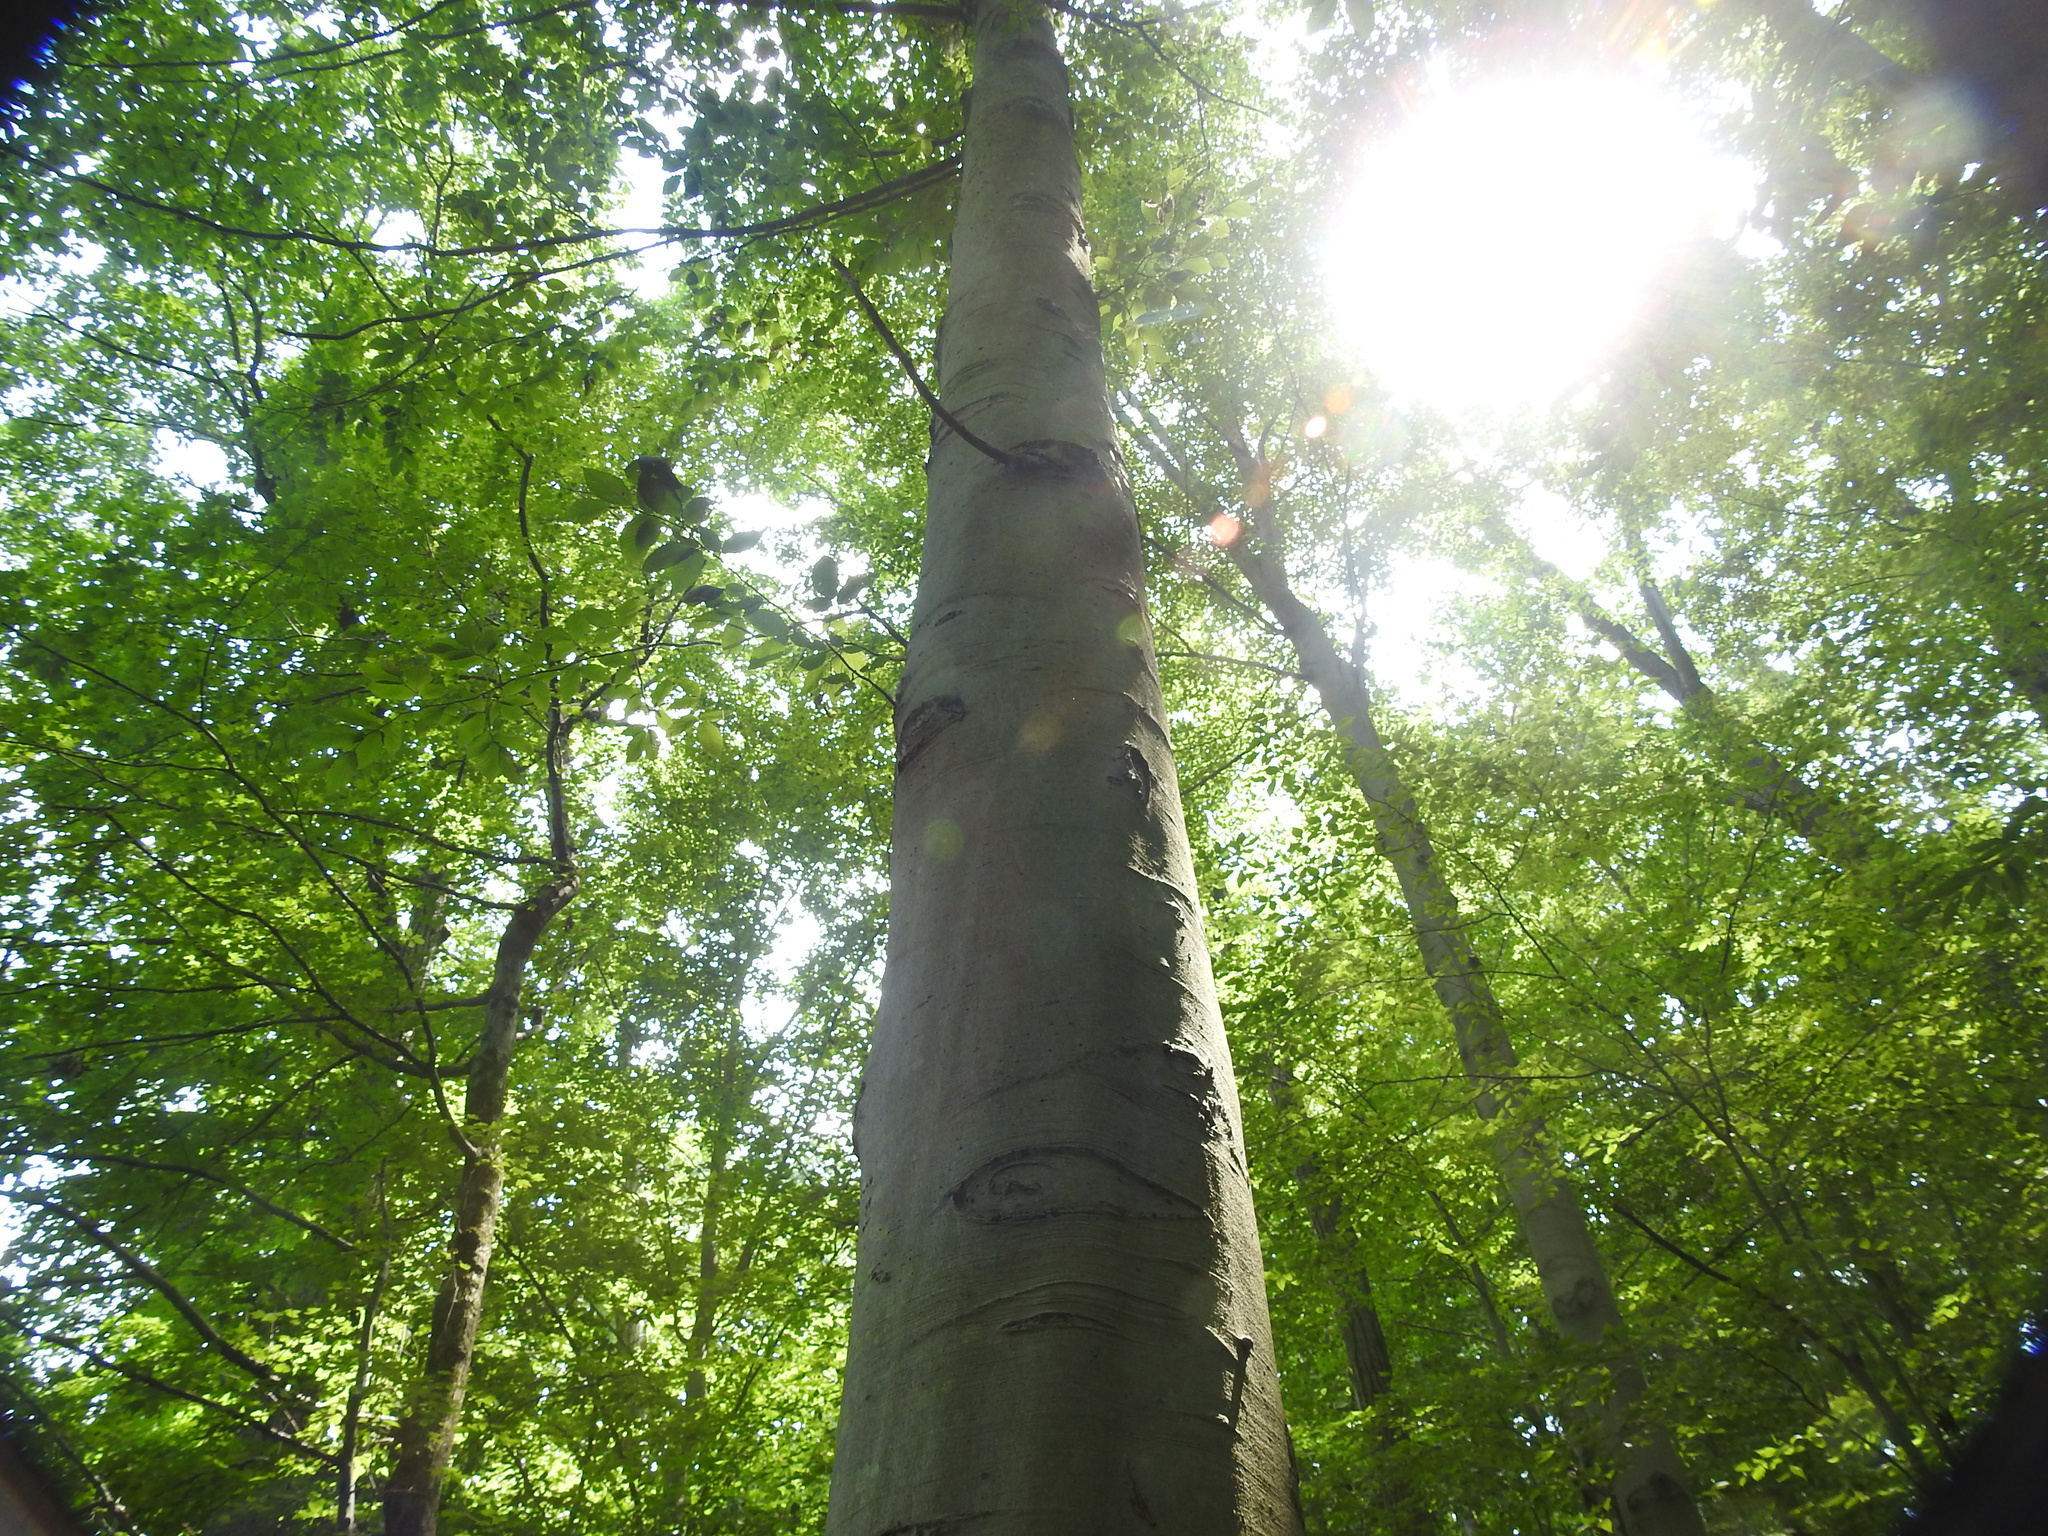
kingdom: Plantae
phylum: Tracheophyta
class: Magnoliopsida
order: Fagales
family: Fagaceae
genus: Fagus
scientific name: Fagus grandifolia
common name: American beech
